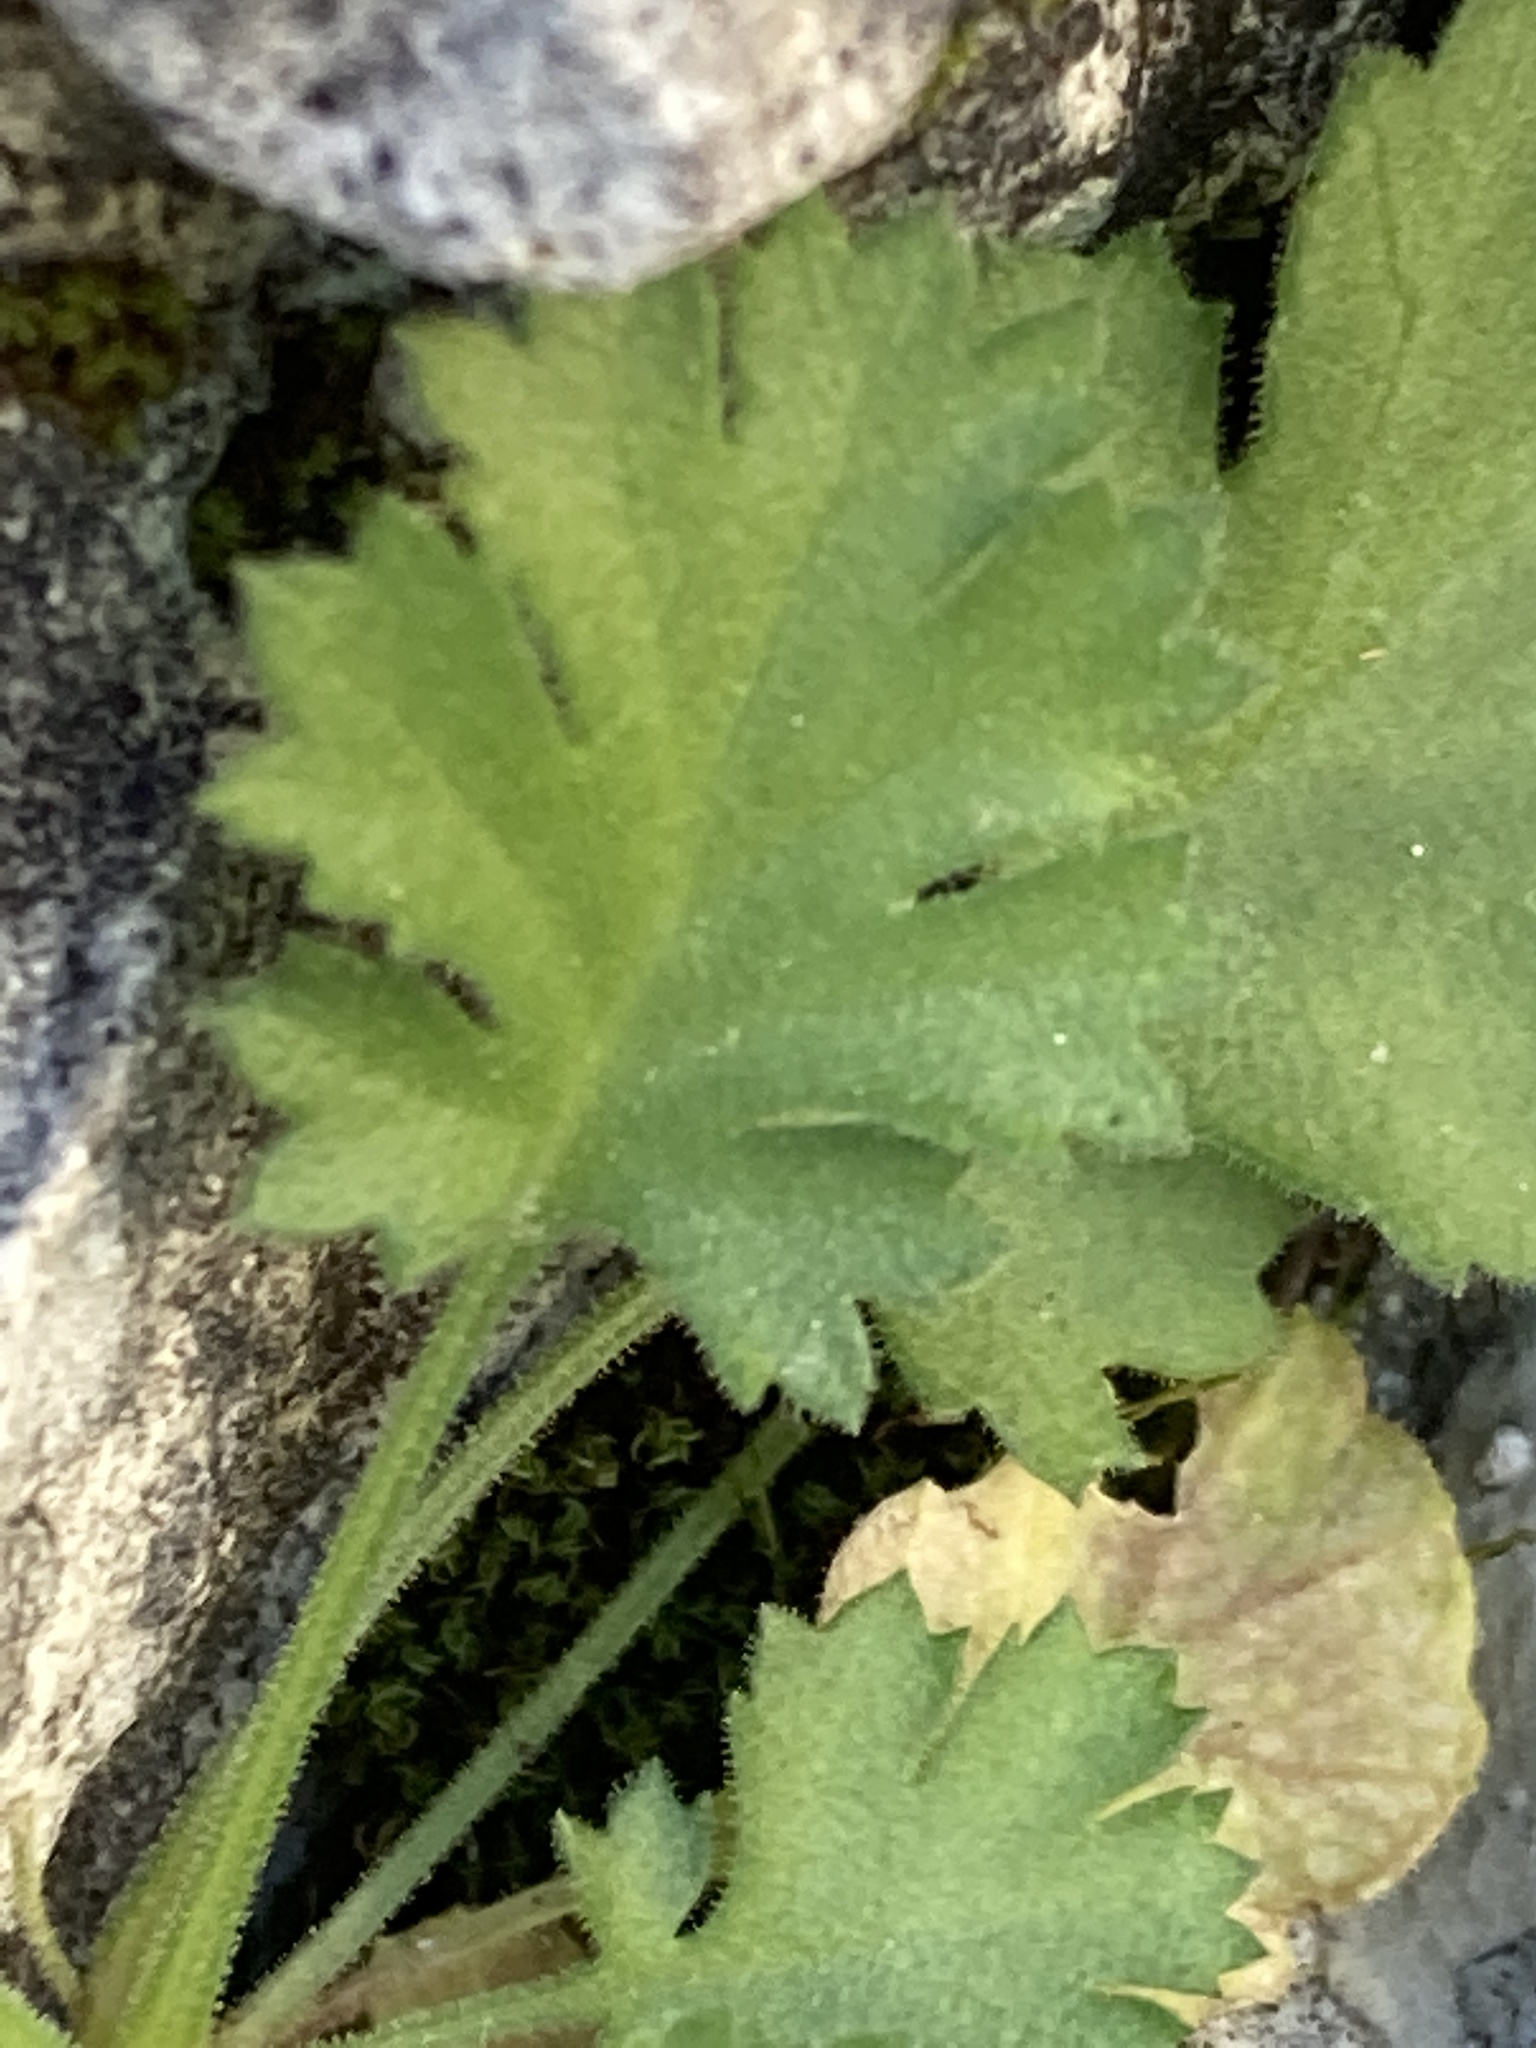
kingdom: Plantae
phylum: Tracheophyta
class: Magnoliopsida
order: Ericales
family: Polemoniaceae
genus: Giliastrum
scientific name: Giliastrum incisum
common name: Splitleaf gilia
